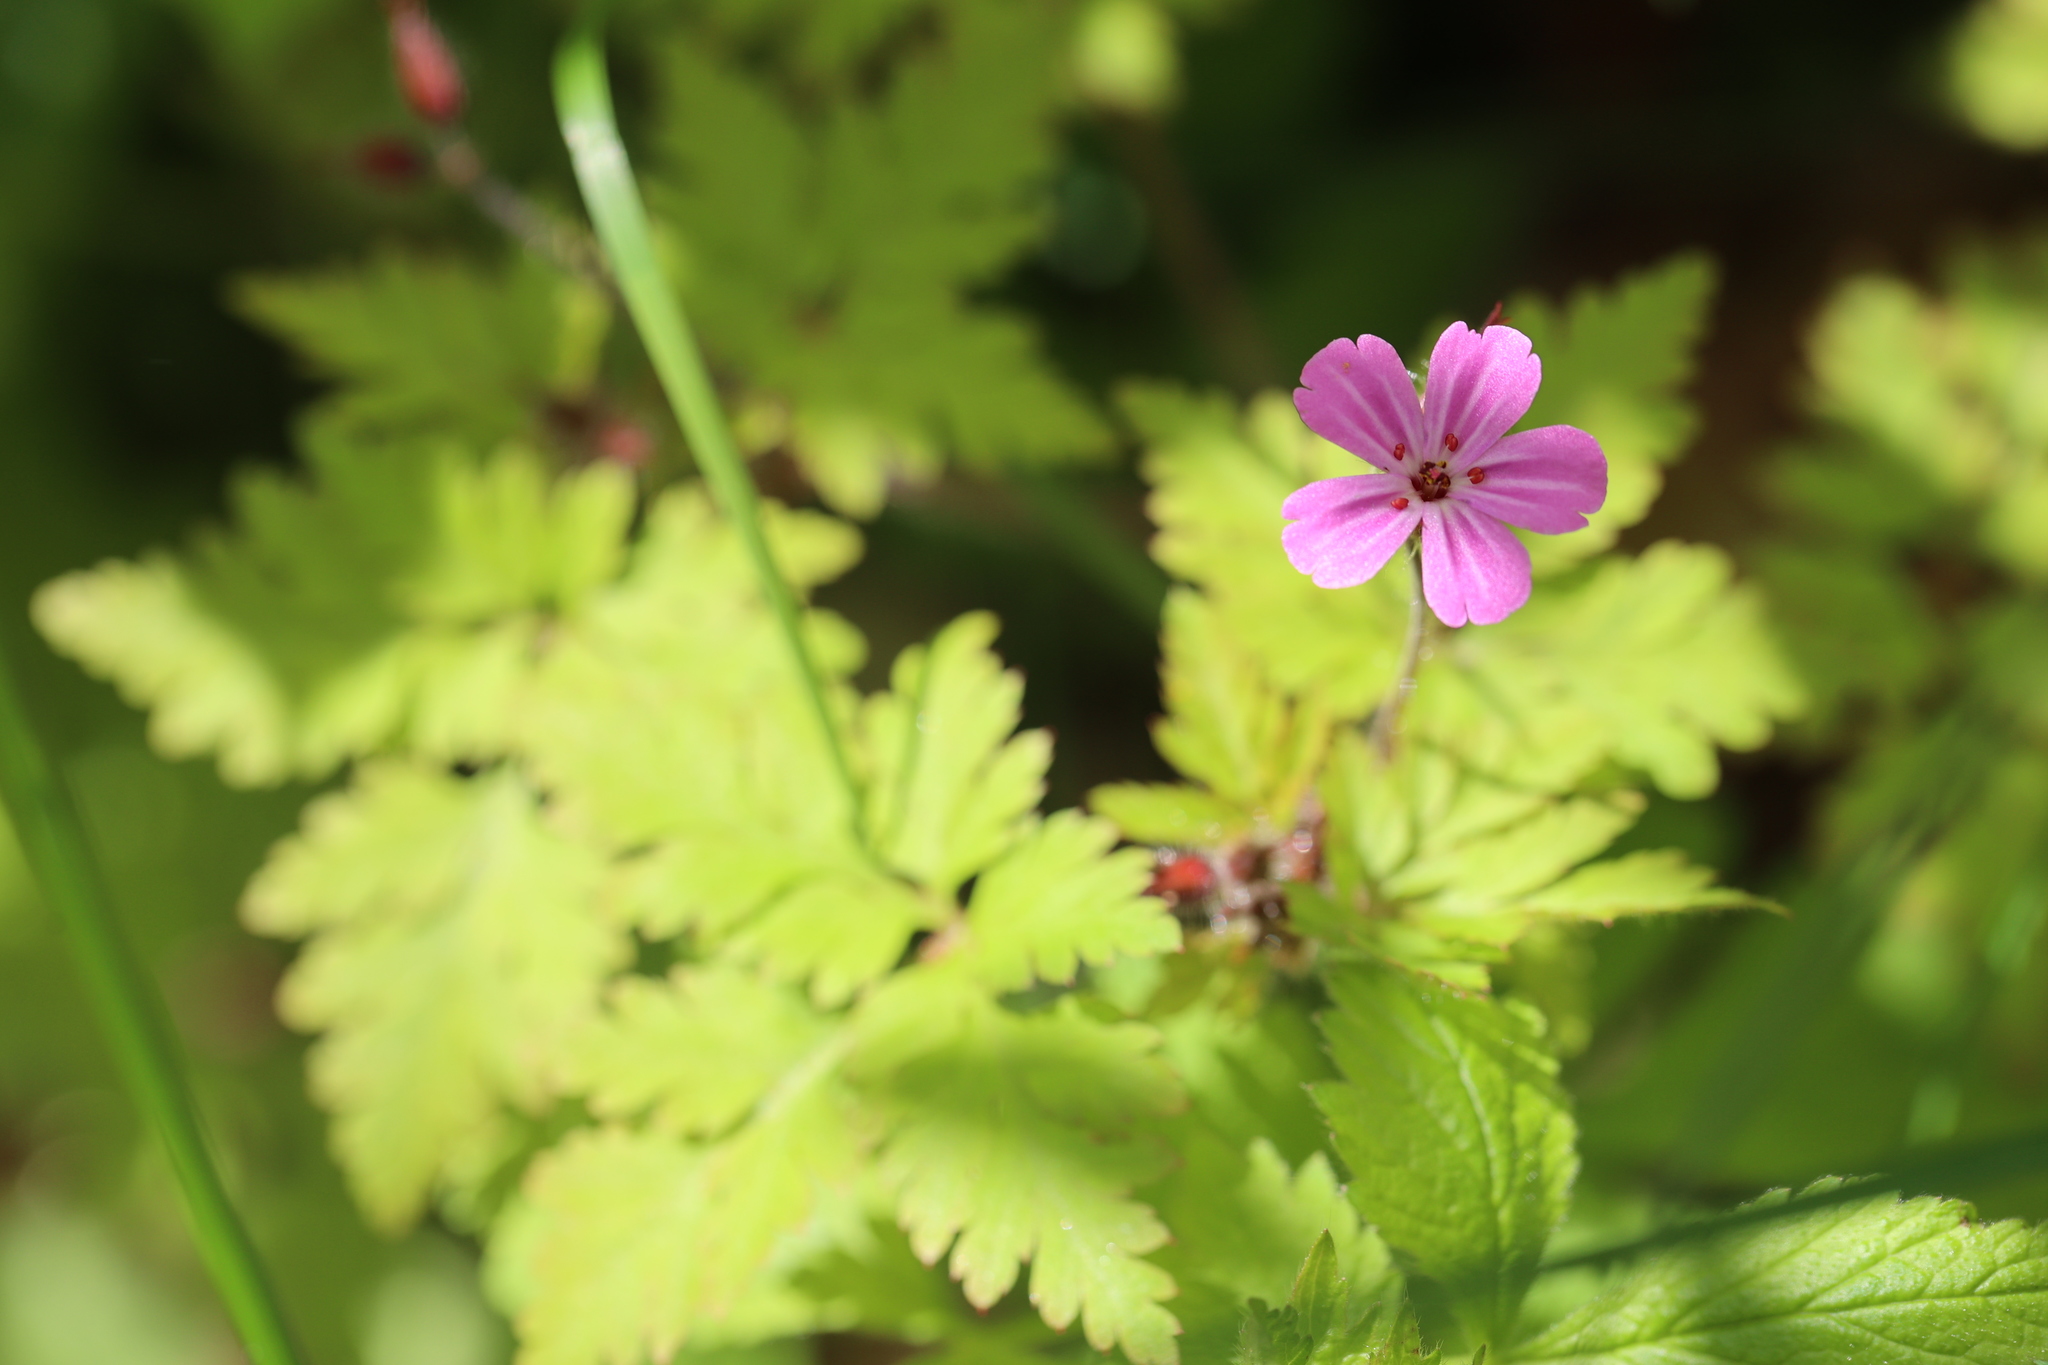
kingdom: Plantae
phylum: Tracheophyta
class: Magnoliopsida
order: Geraniales
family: Geraniaceae
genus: Geranium
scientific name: Geranium robertianum
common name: Herb-robert
